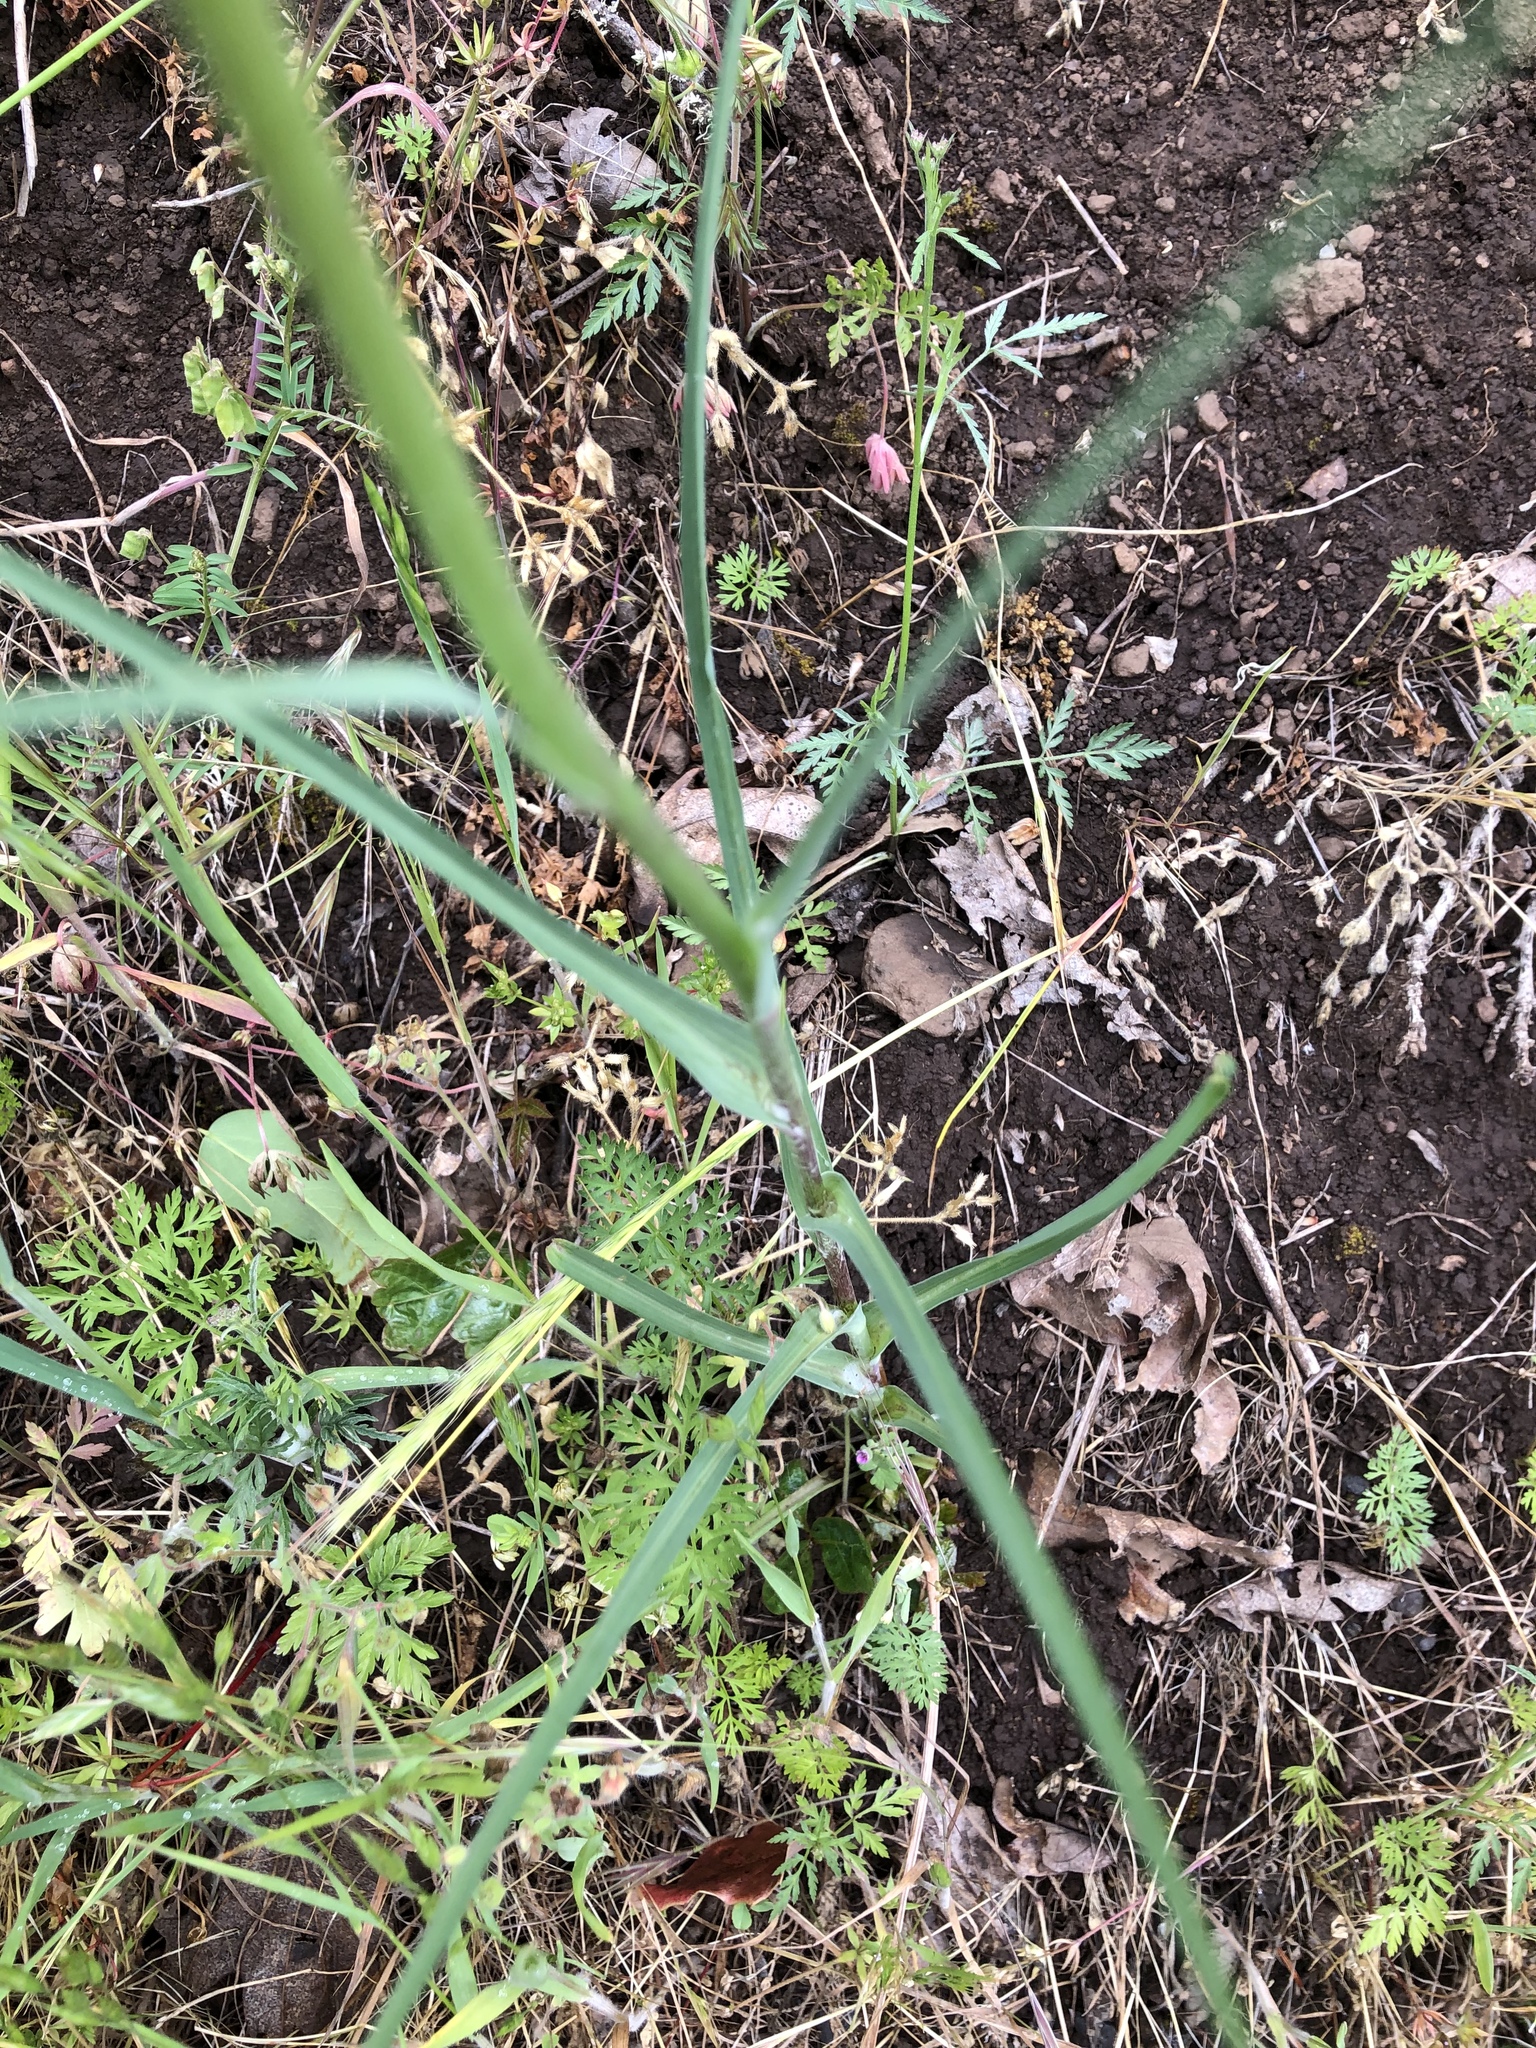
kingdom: Plantae
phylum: Tracheophyta
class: Magnoliopsida
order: Asterales
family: Asteraceae
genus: Tragopogon
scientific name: Tragopogon dubius
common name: Yellow salsify
